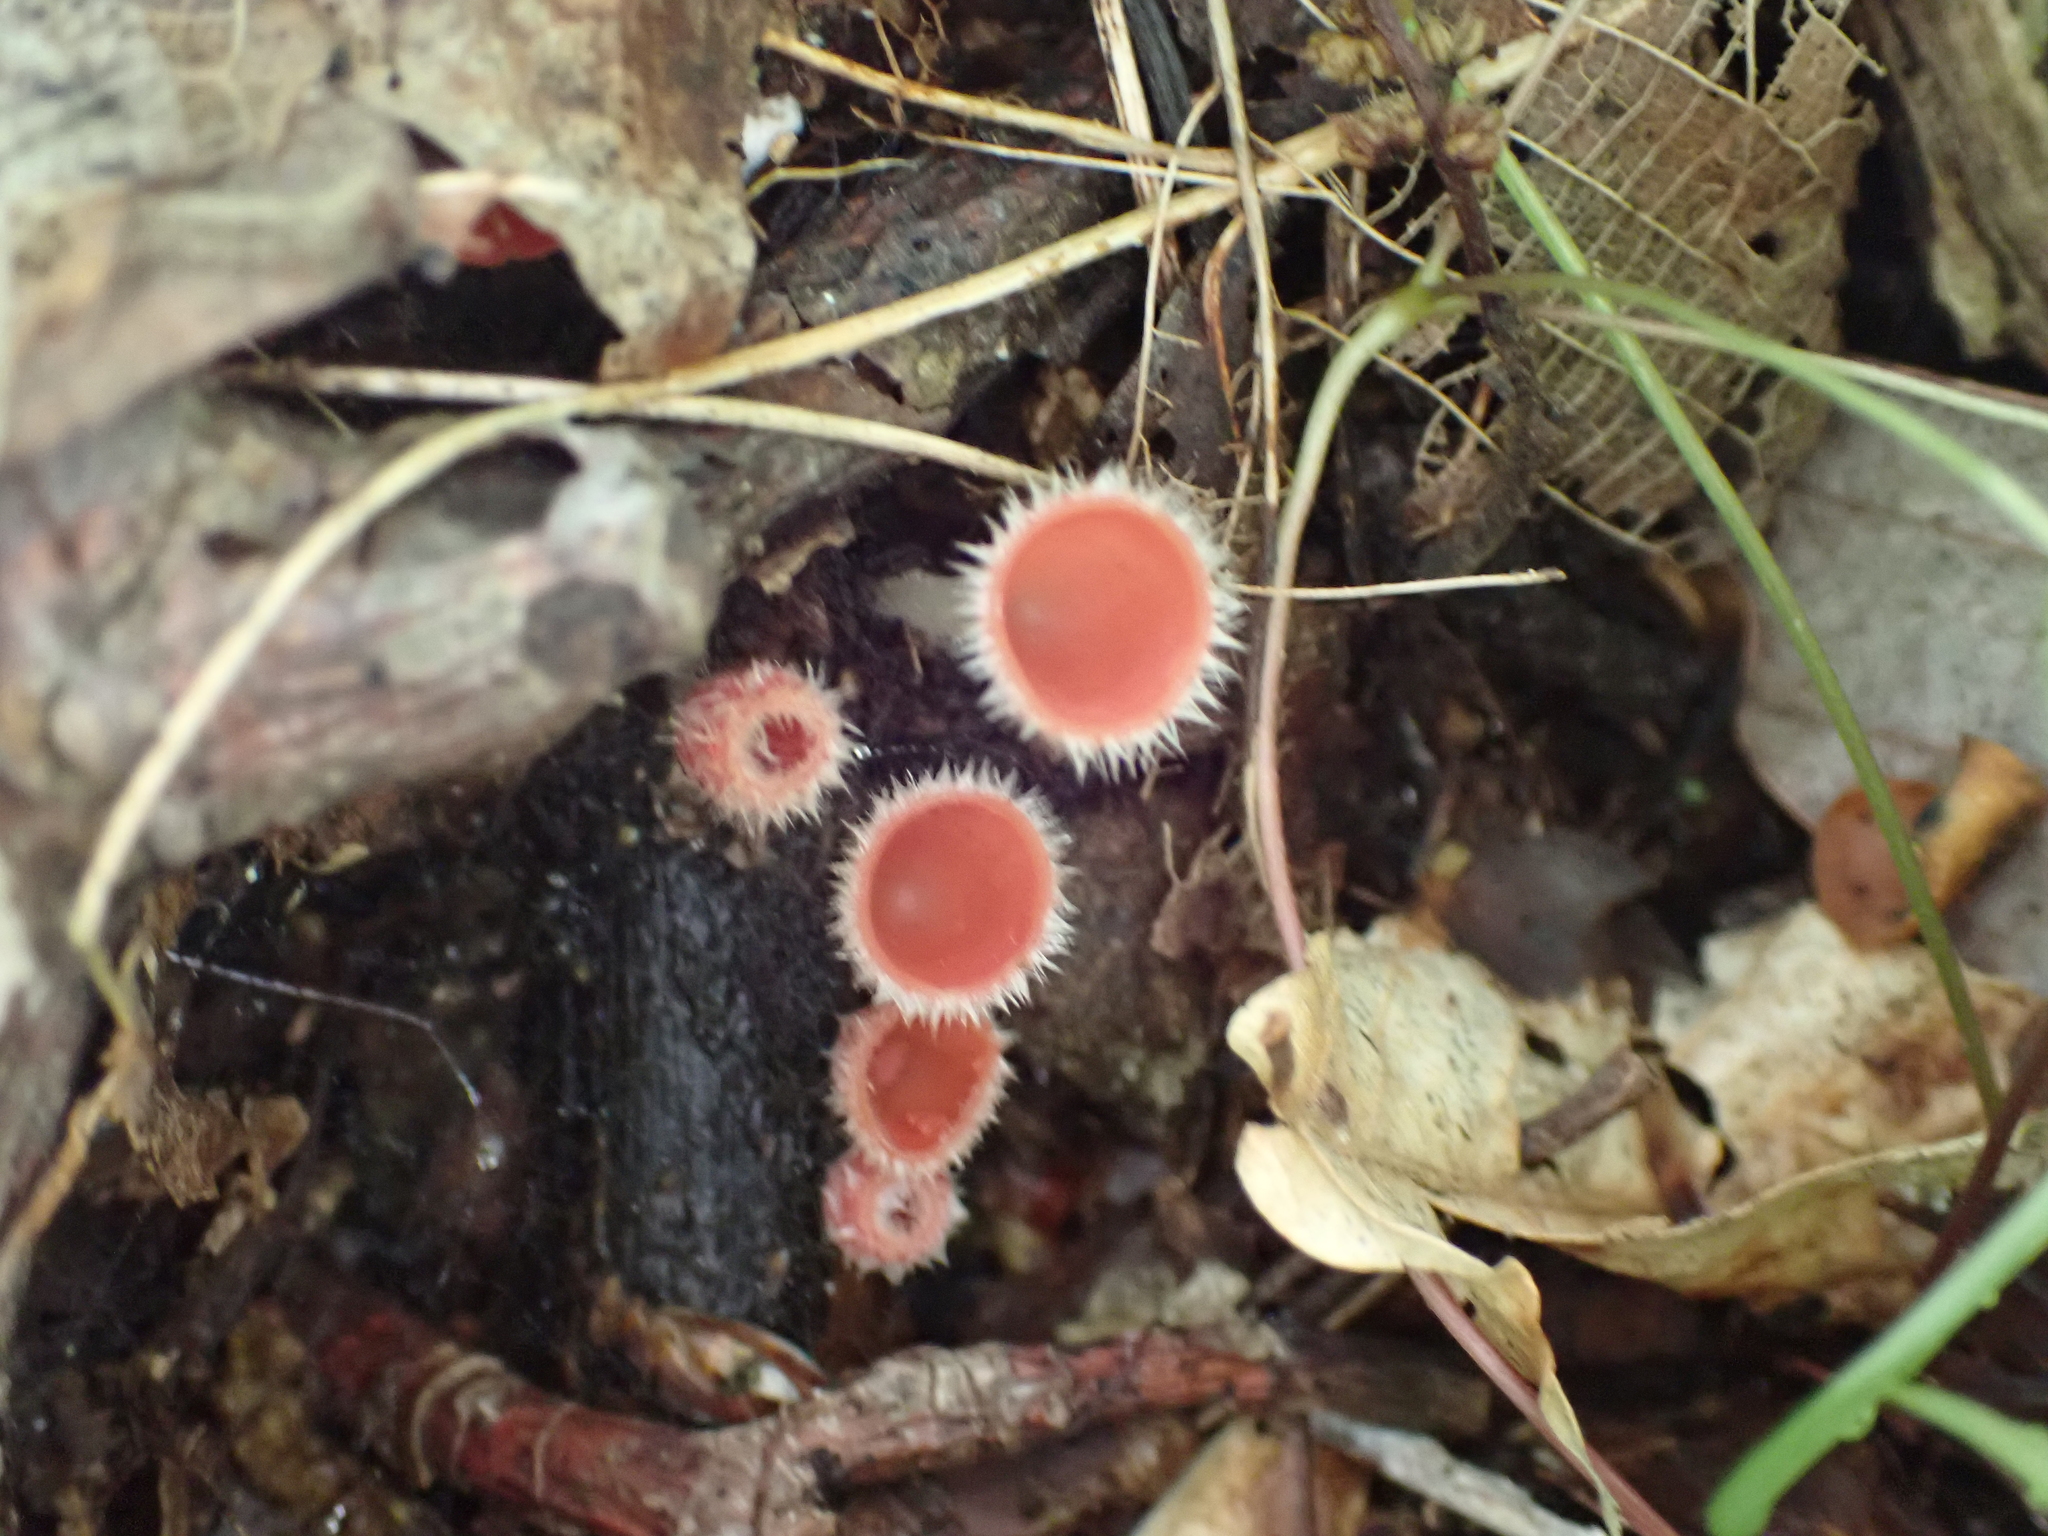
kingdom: Fungi
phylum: Ascomycota
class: Pezizomycetes
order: Pezizales
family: Sarcoscyphaceae
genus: Microstoma
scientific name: Microstoma floccosum
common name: Pink fringed faery cup
